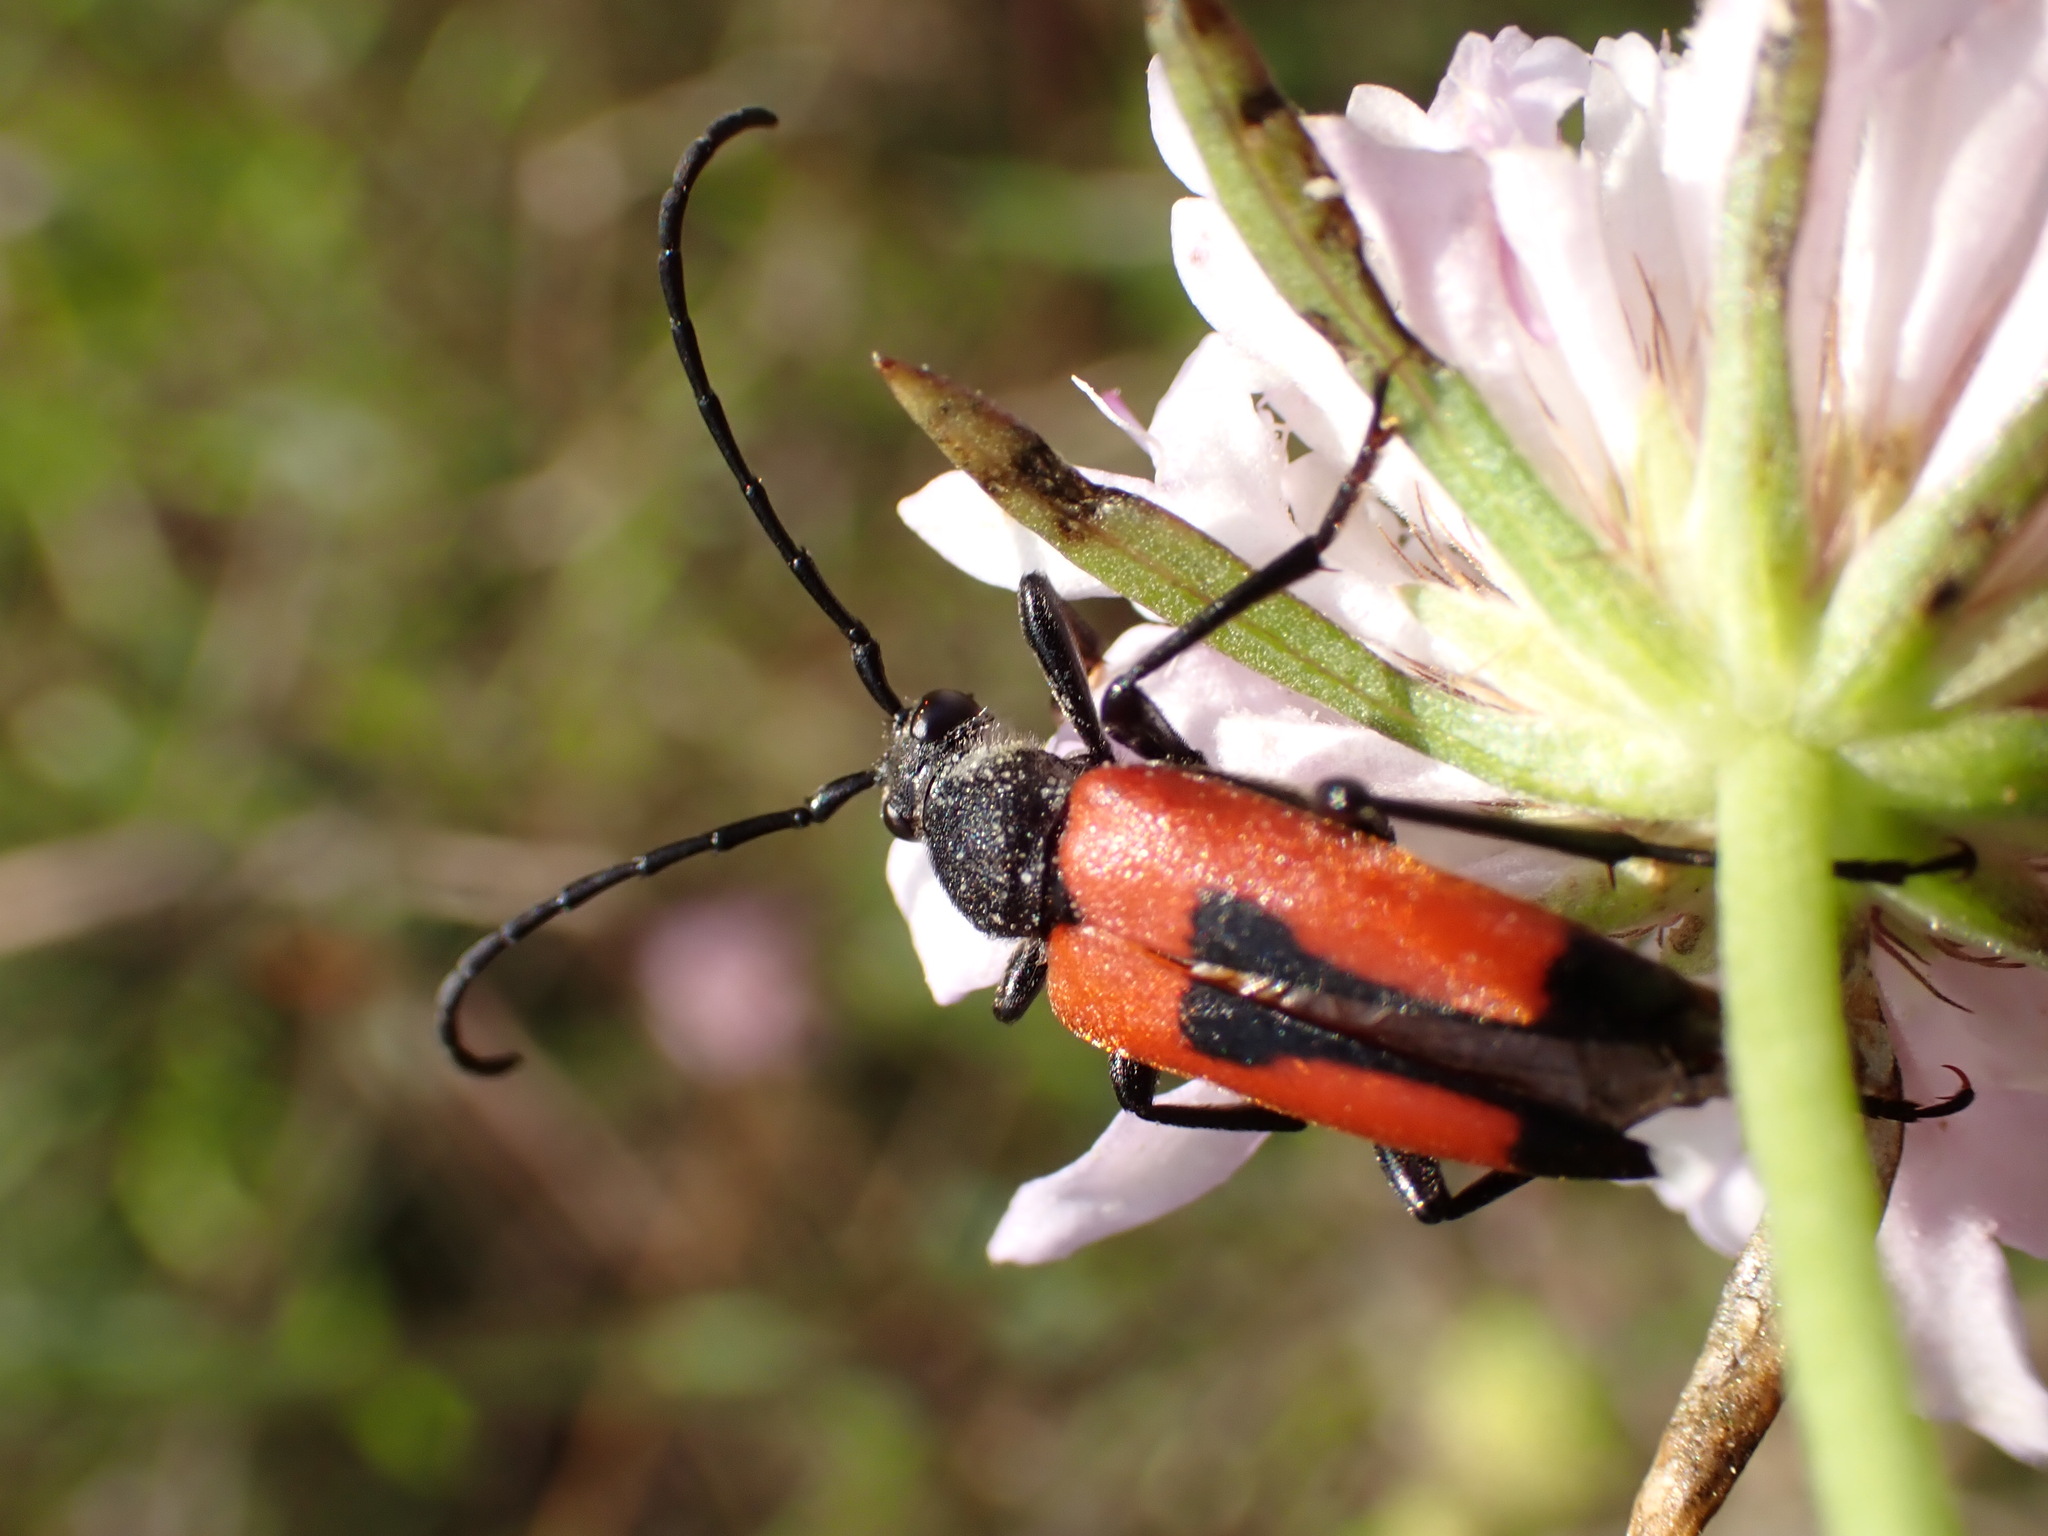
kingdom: Animalia
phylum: Arthropoda
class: Insecta
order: Coleoptera
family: Cerambycidae
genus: Stictoleptura
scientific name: Stictoleptura cordigera
